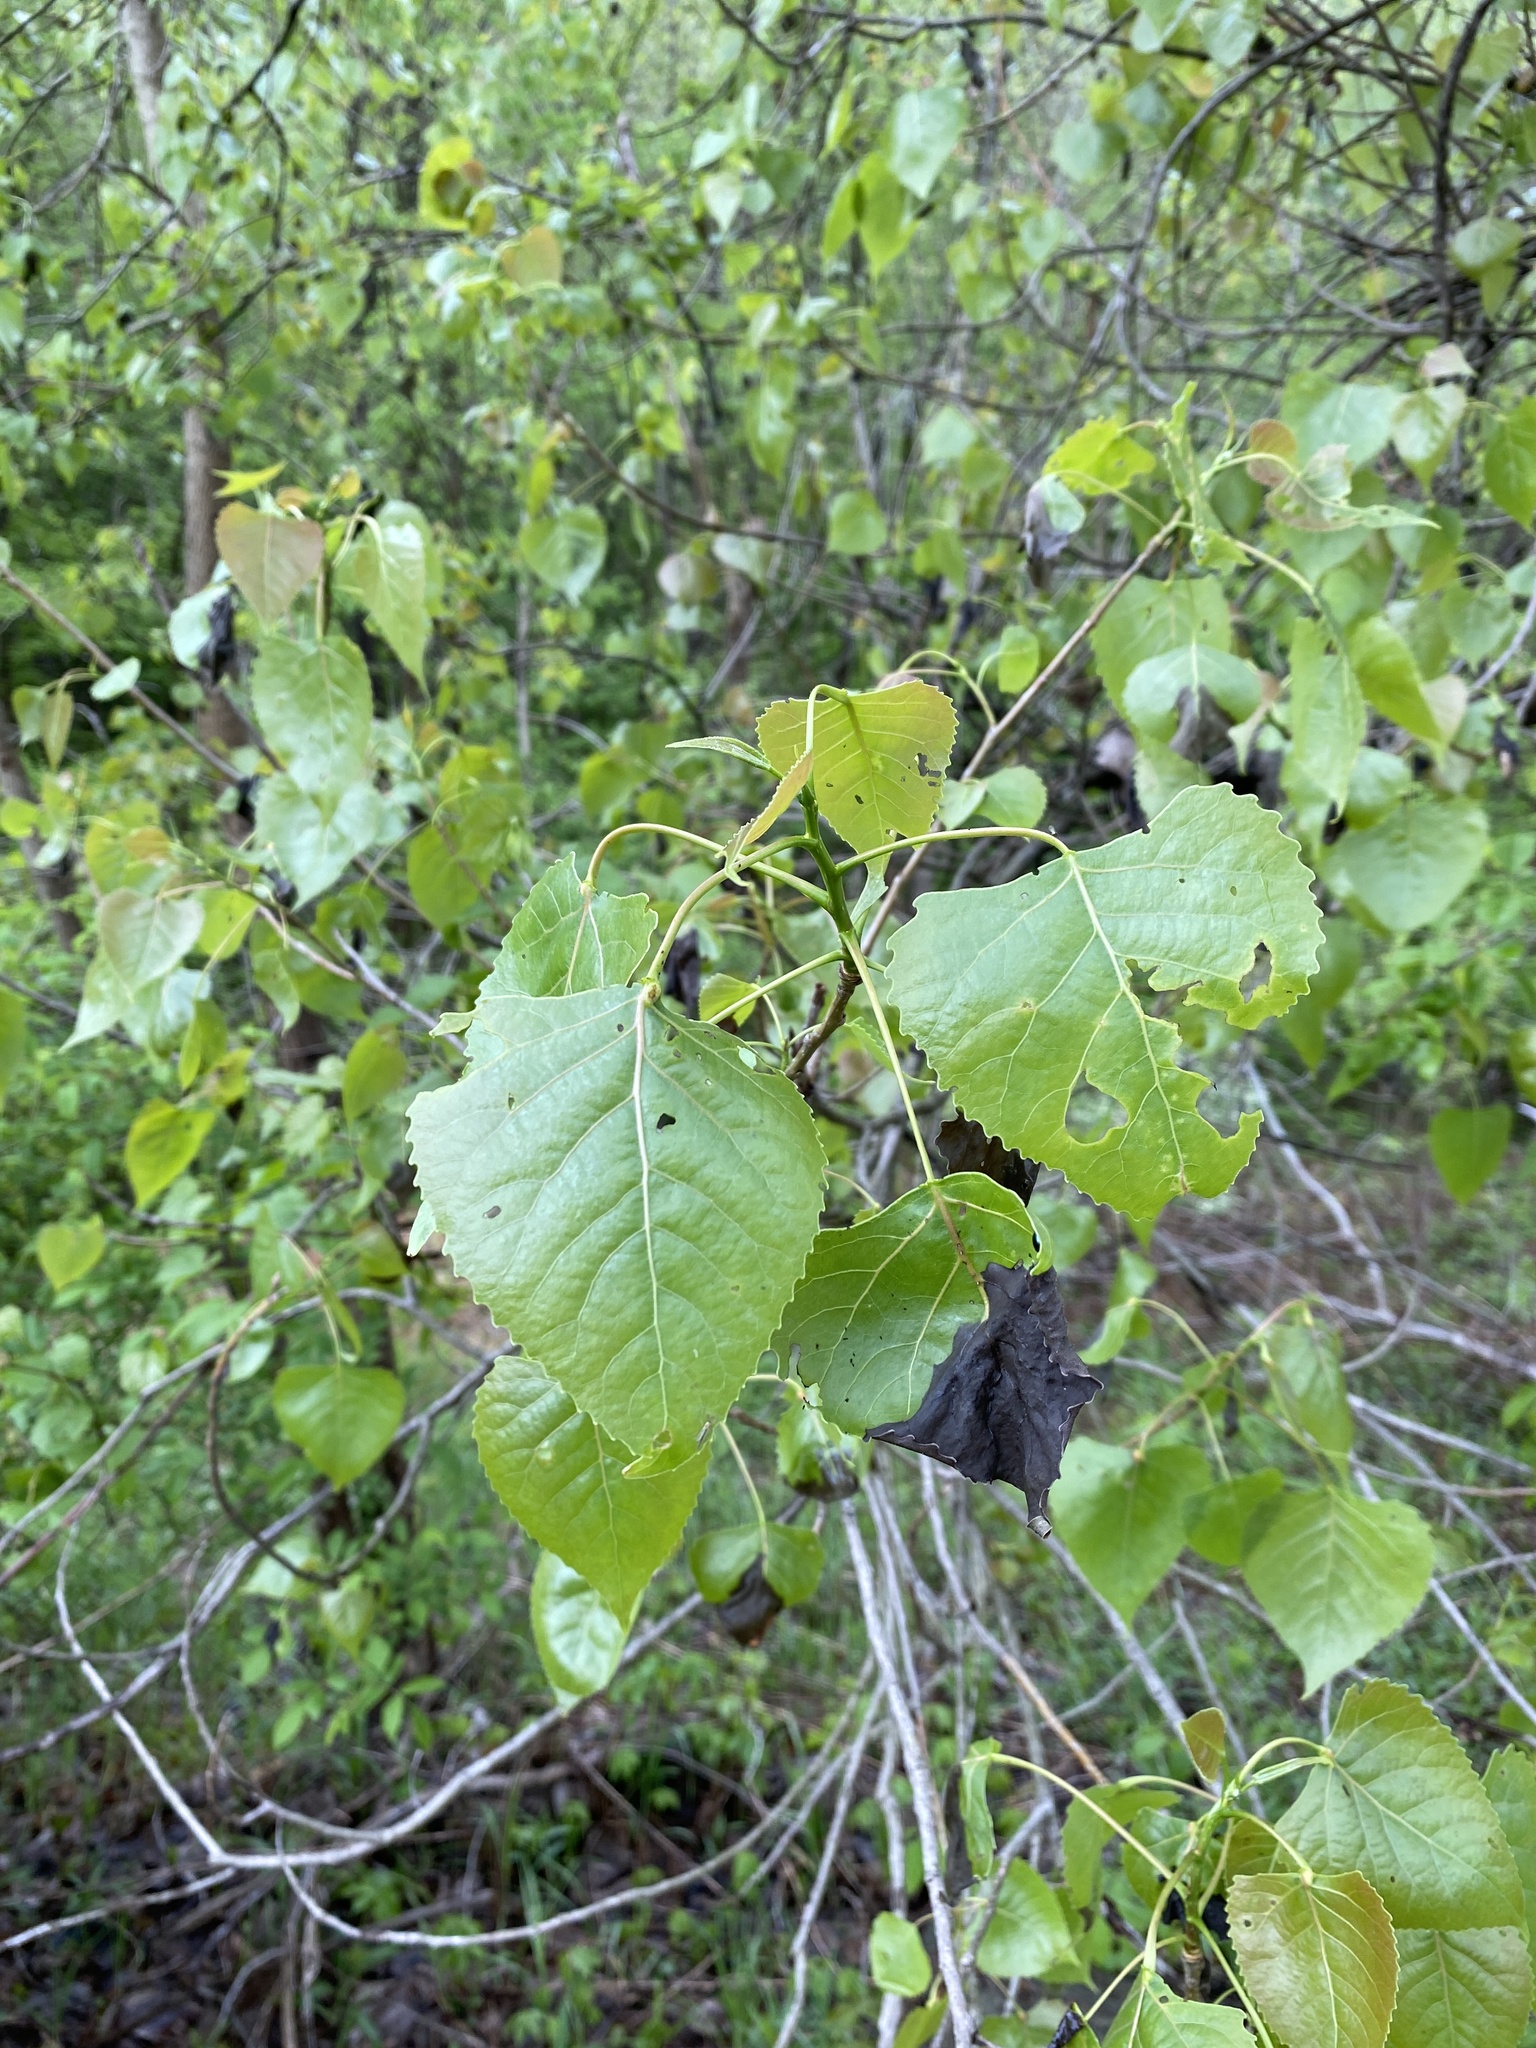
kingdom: Plantae
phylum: Tracheophyta
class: Magnoliopsida
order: Malpighiales
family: Salicaceae
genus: Populus
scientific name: Populus deltoides
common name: Eastern cottonwood
